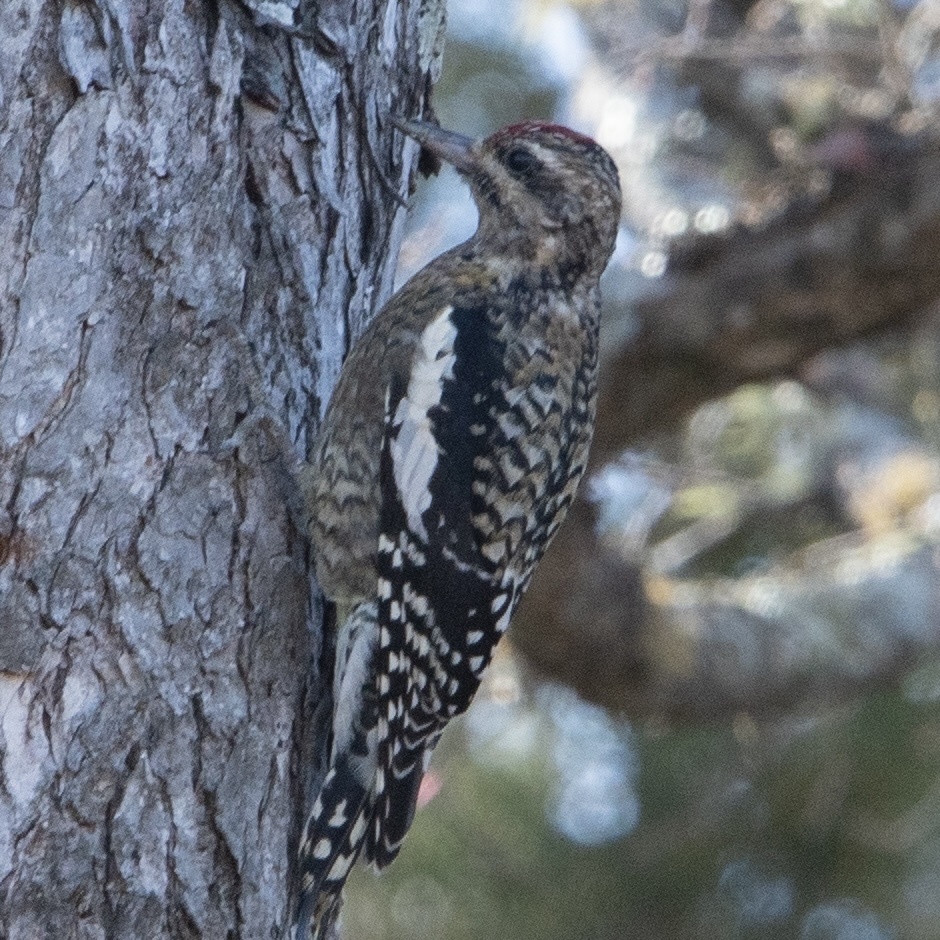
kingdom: Animalia
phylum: Chordata
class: Aves
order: Piciformes
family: Picidae
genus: Sphyrapicus
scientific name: Sphyrapicus varius
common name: Yellow-bellied sapsucker
